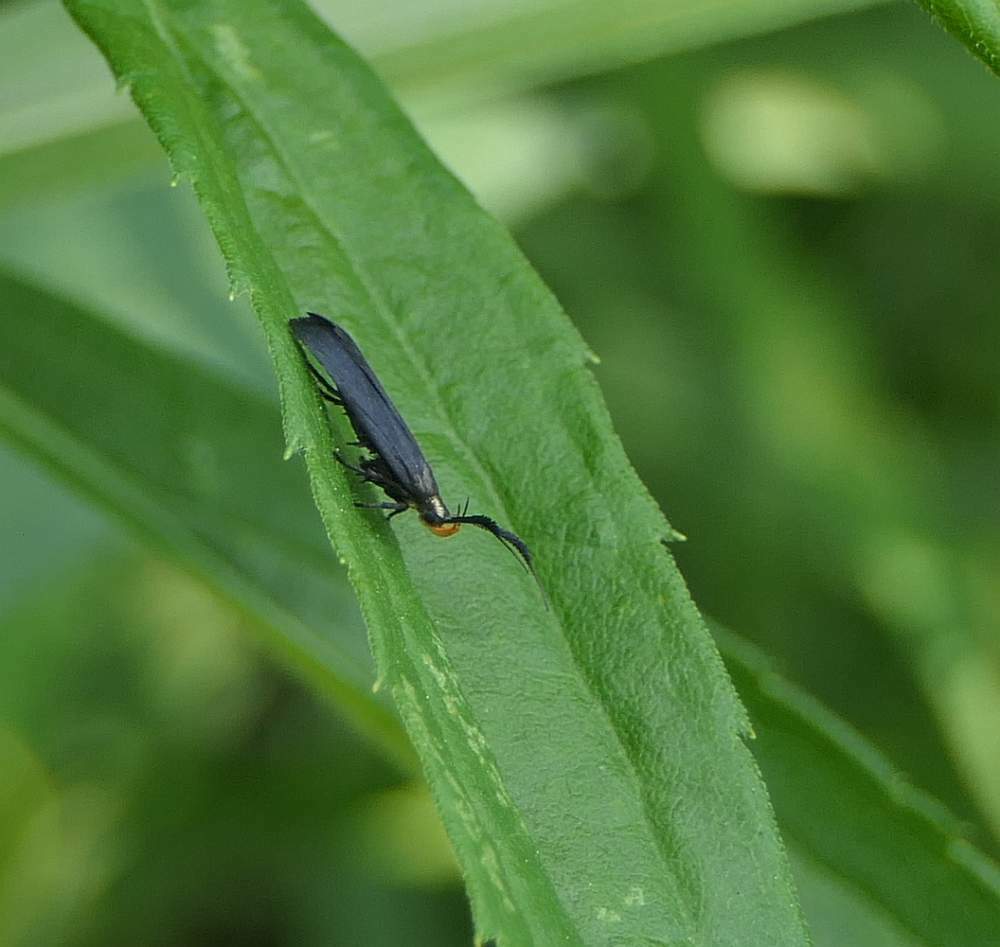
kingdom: Animalia
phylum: Arthropoda
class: Insecta
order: Lepidoptera
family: Gelechiidae
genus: Dichomeris
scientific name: Dichomeris nonstrigella
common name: Little devil moth
